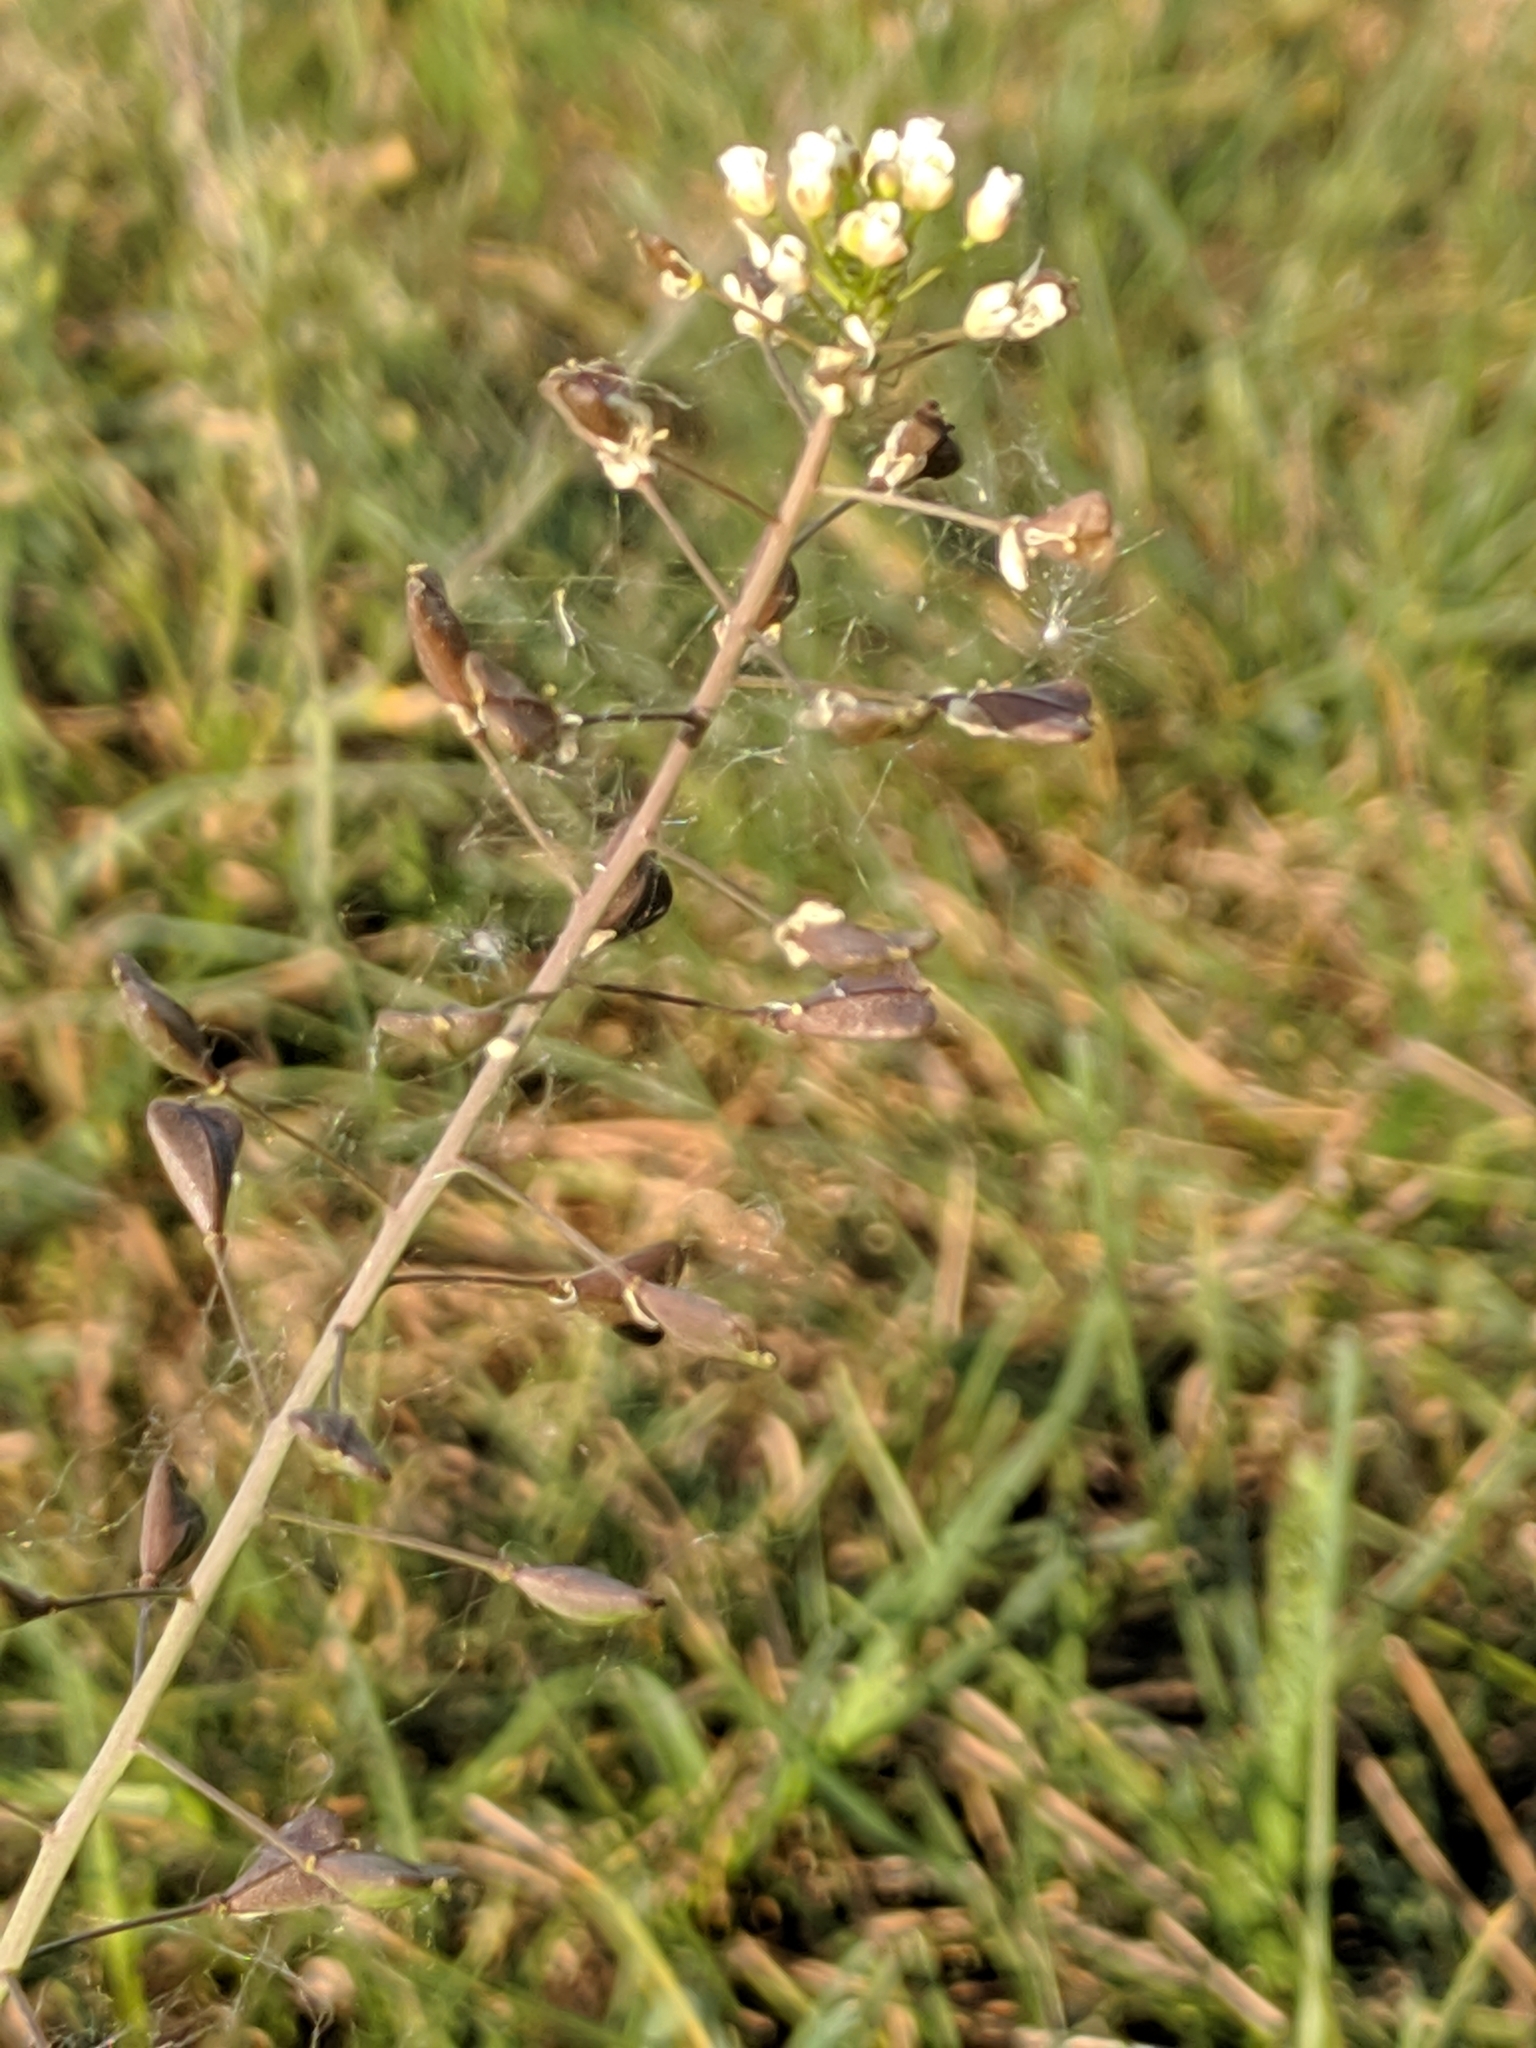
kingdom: Plantae
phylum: Tracheophyta
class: Magnoliopsida
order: Brassicales
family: Brassicaceae
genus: Capsella
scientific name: Capsella bursa-pastoris
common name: Shepherd's purse
